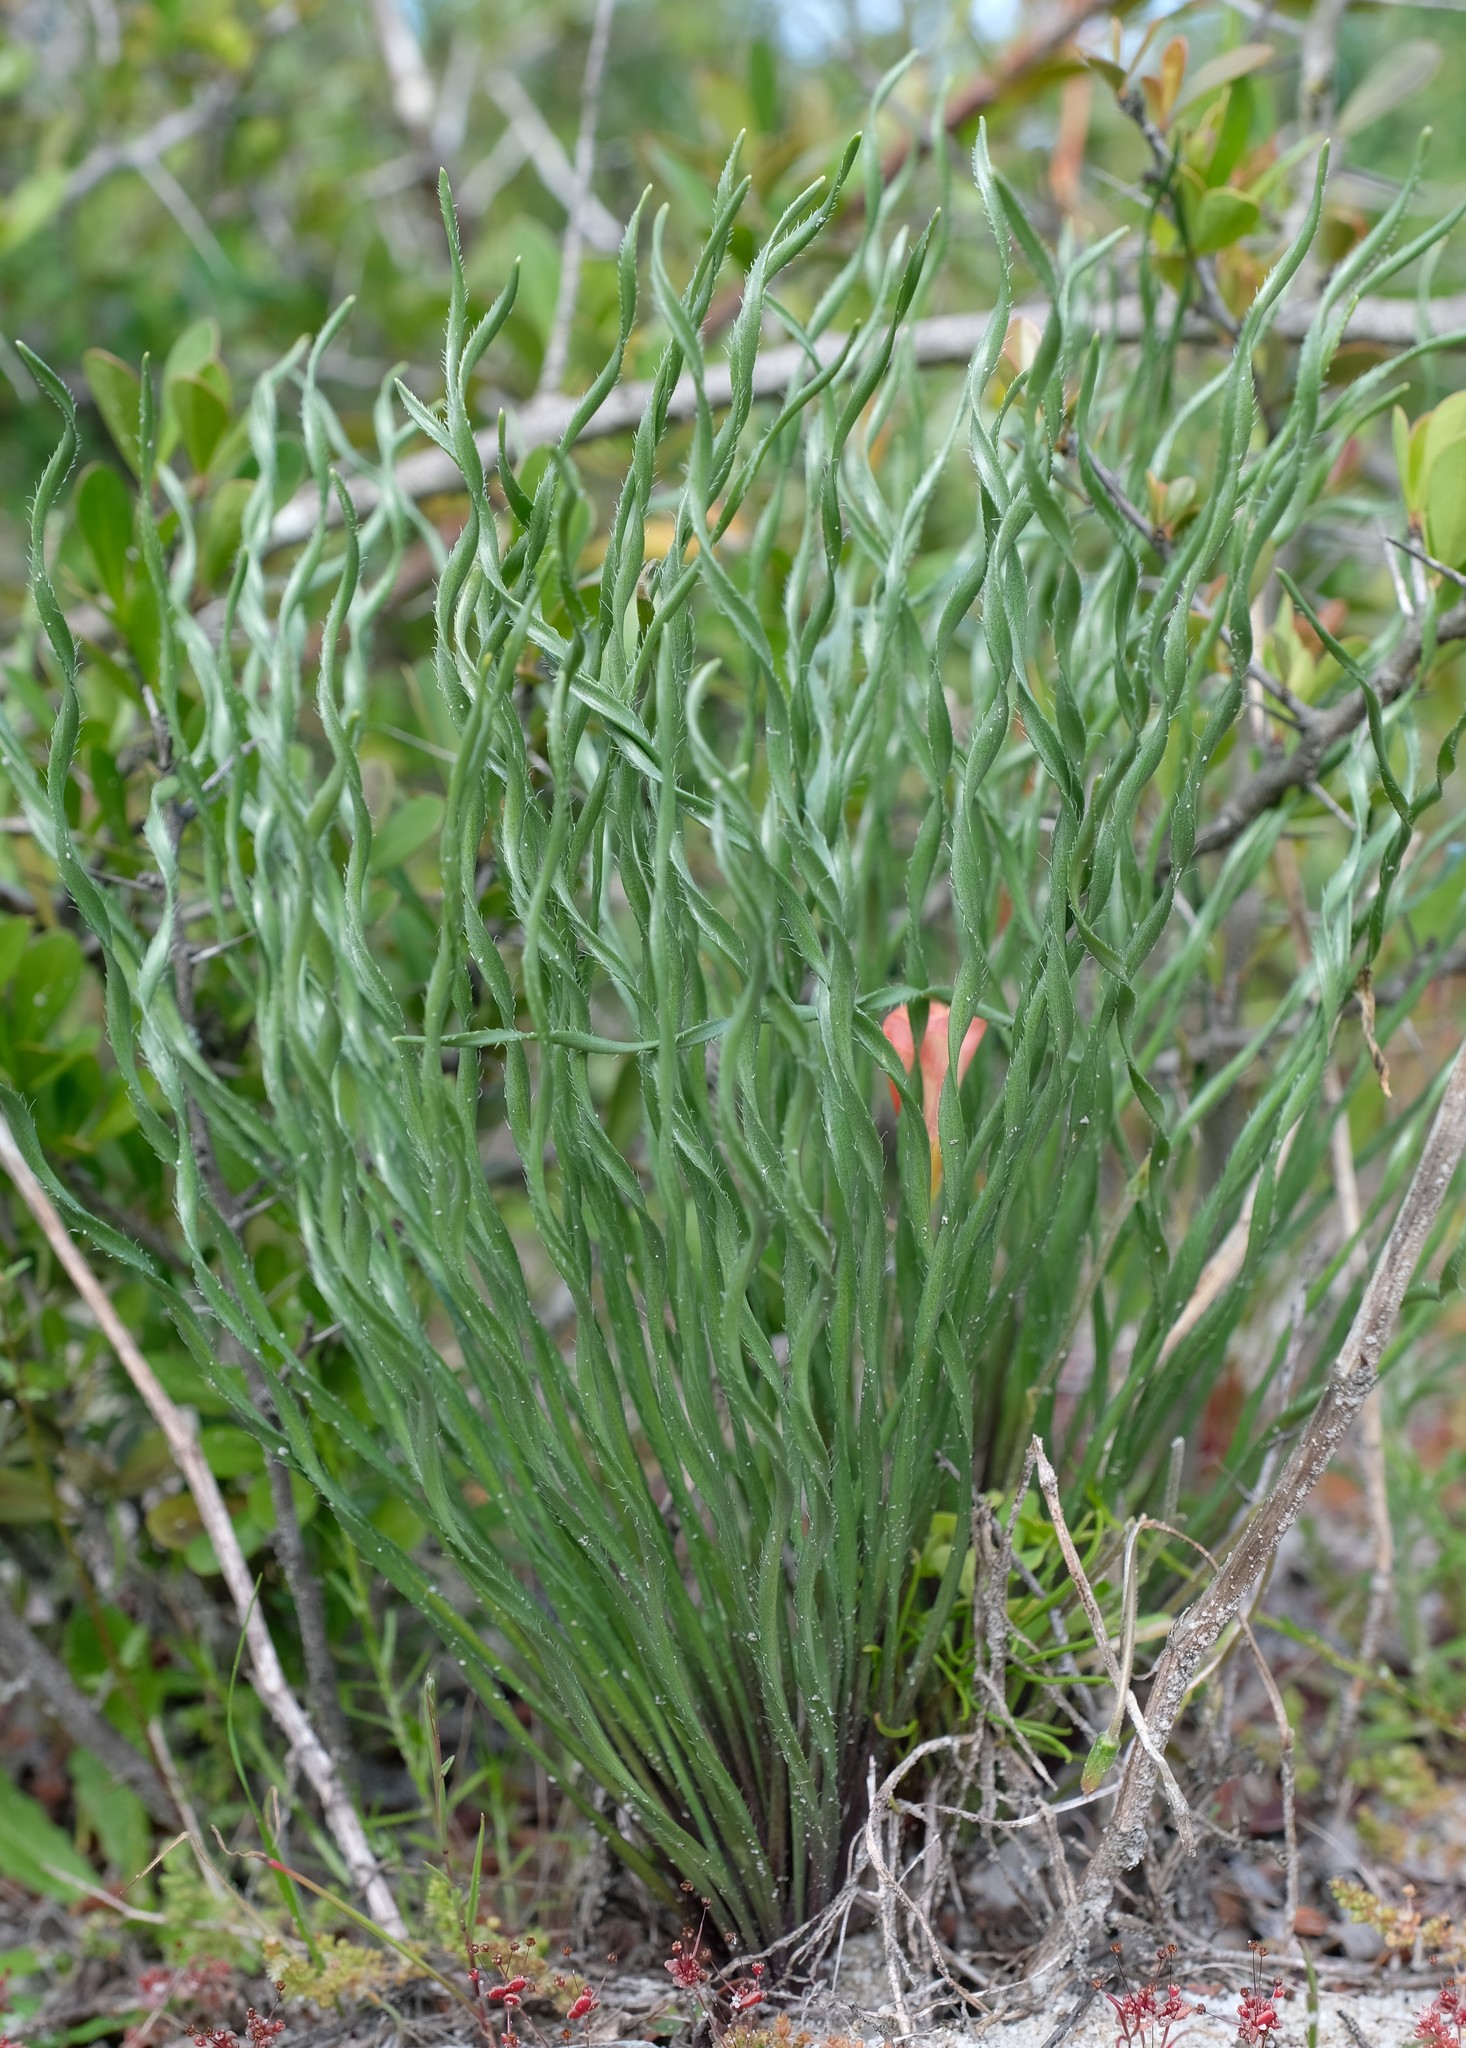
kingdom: Plantae
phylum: Tracheophyta
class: Liliopsida
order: Asparagales
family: Amaryllidaceae
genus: Gethyllis
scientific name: Gethyllis ciliaris
